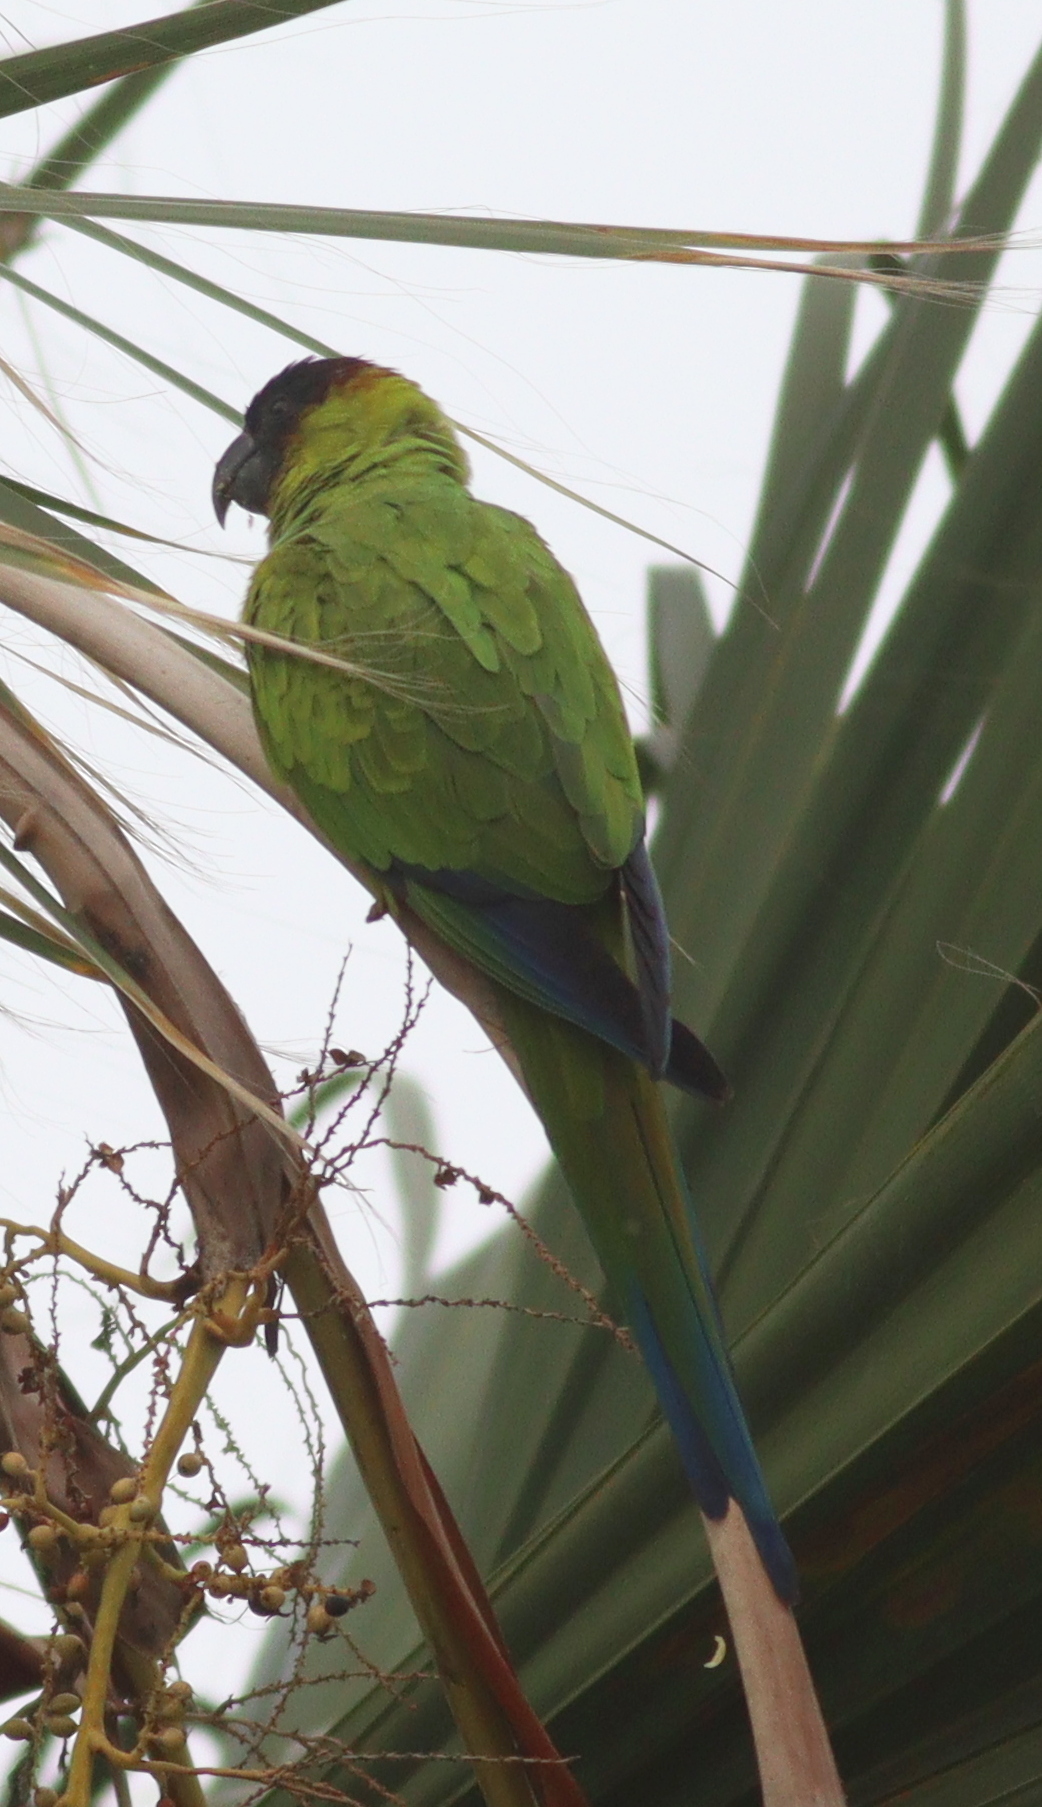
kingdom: Animalia
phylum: Chordata
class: Aves
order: Psittaciformes
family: Psittacidae
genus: Nandayus
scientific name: Nandayus nenday
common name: Nanday parakeet
